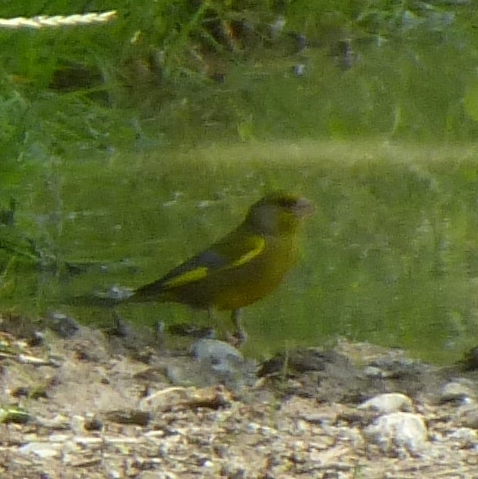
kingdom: Plantae
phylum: Tracheophyta
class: Liliopsida
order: Poales
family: Poaceae
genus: Chloris
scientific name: Chloris chloris
